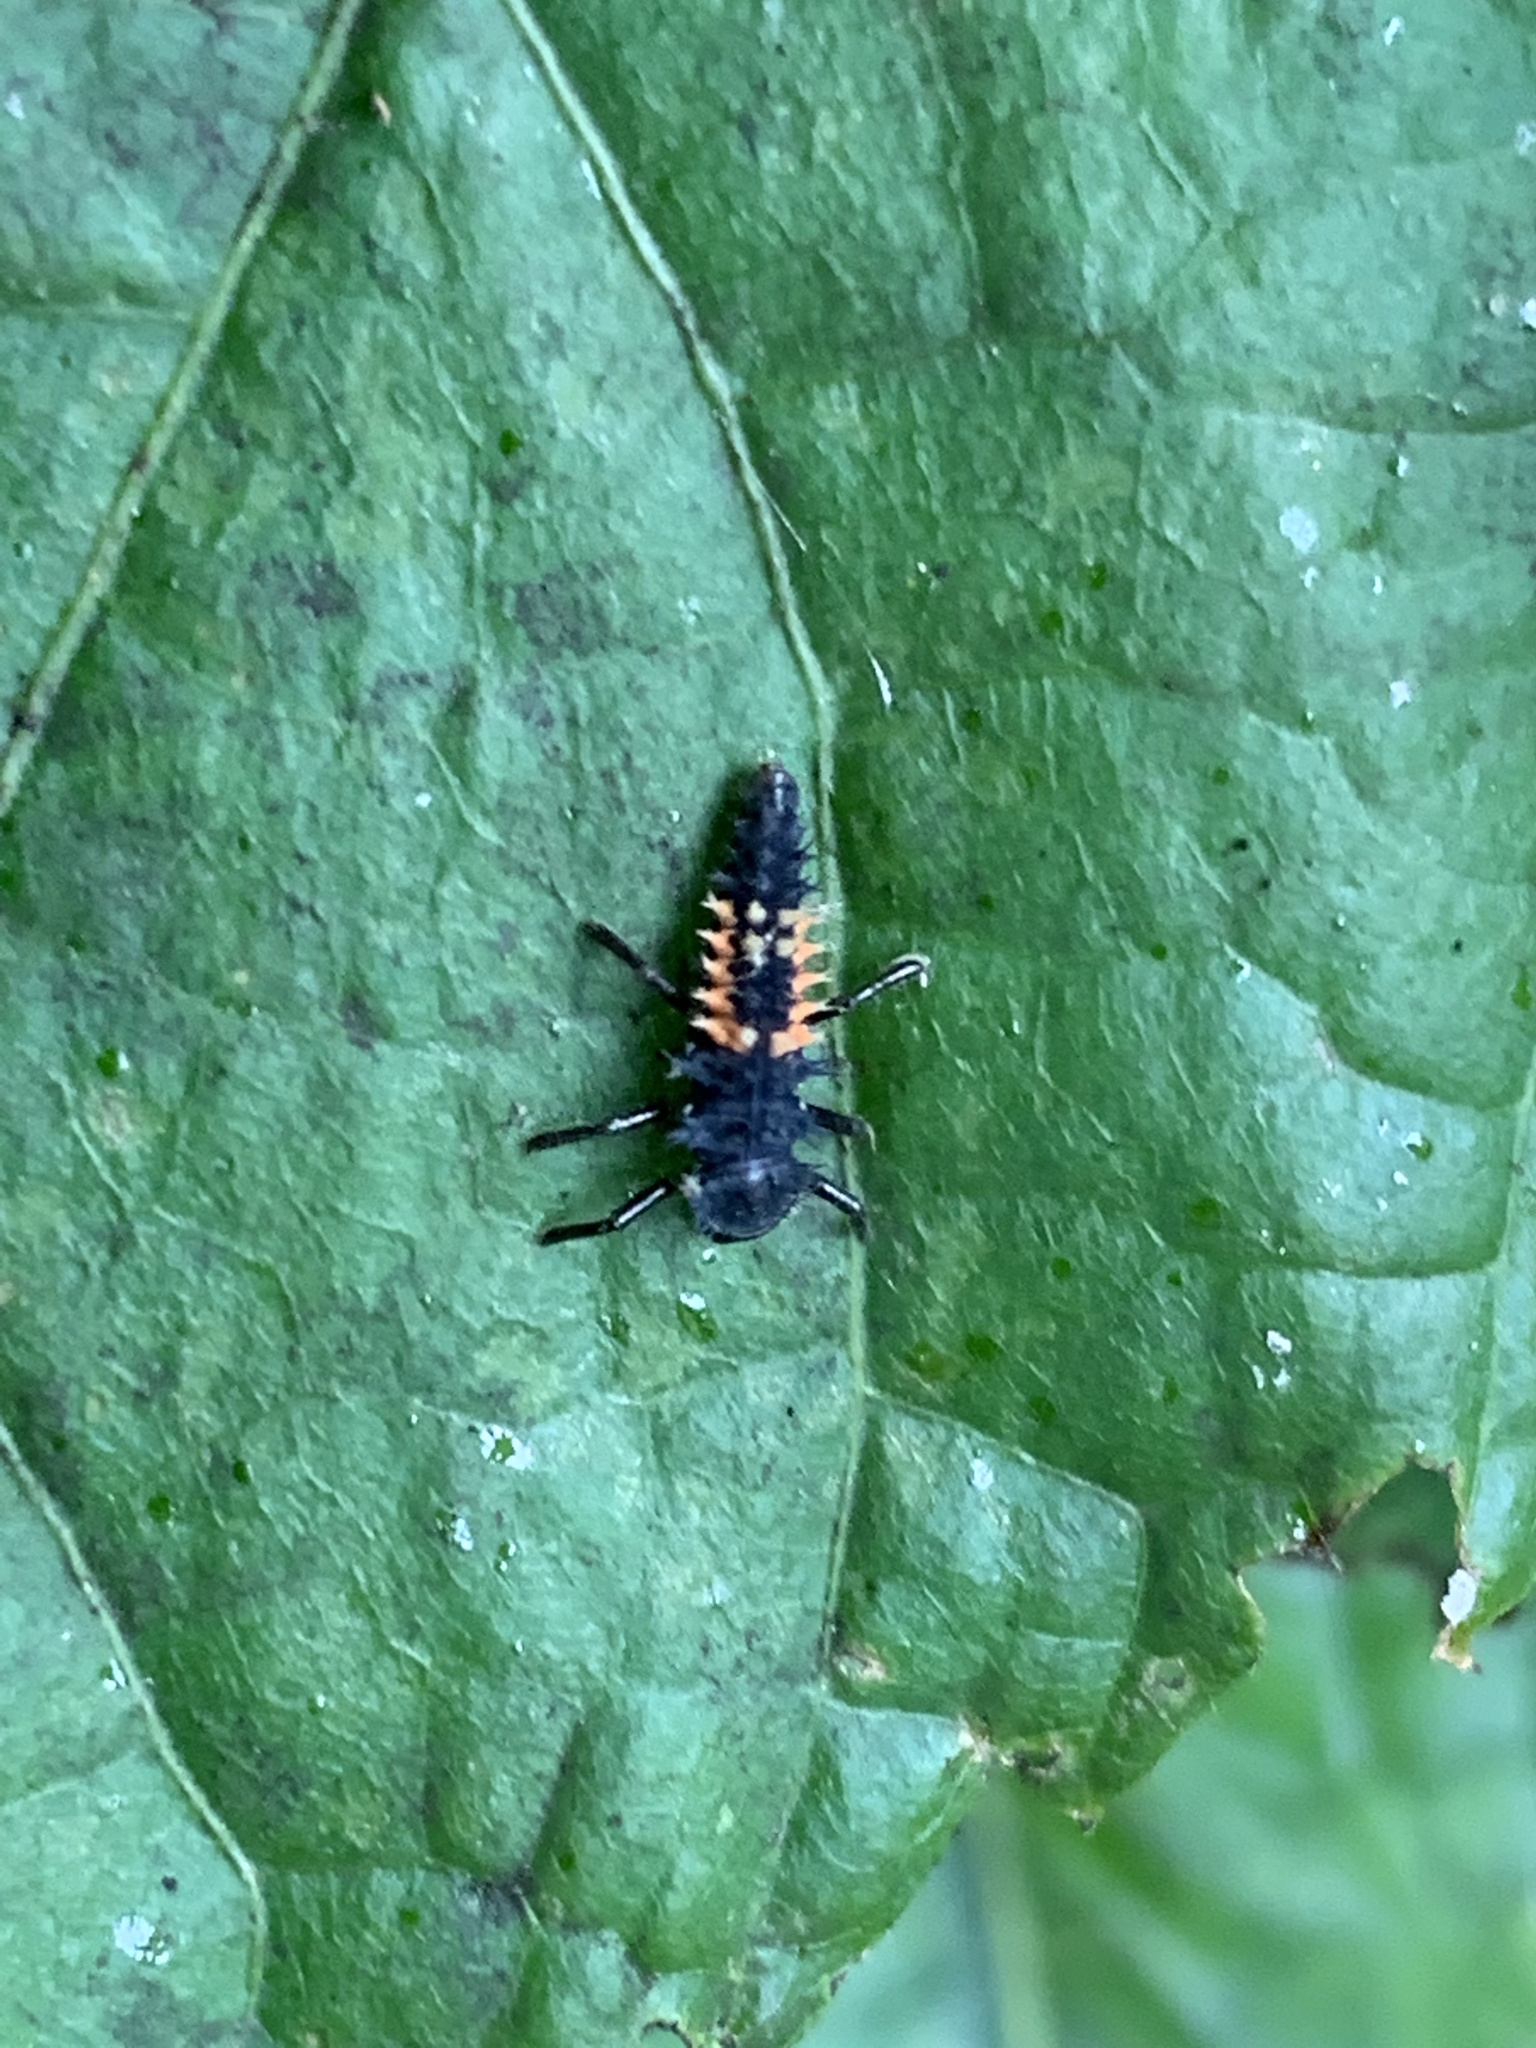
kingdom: Animalia
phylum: Arthropoda
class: Insecta
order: Coleoptera
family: Coccinellidae
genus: Harmonia
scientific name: Harmonia axyridis
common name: Harlequin ladybird
